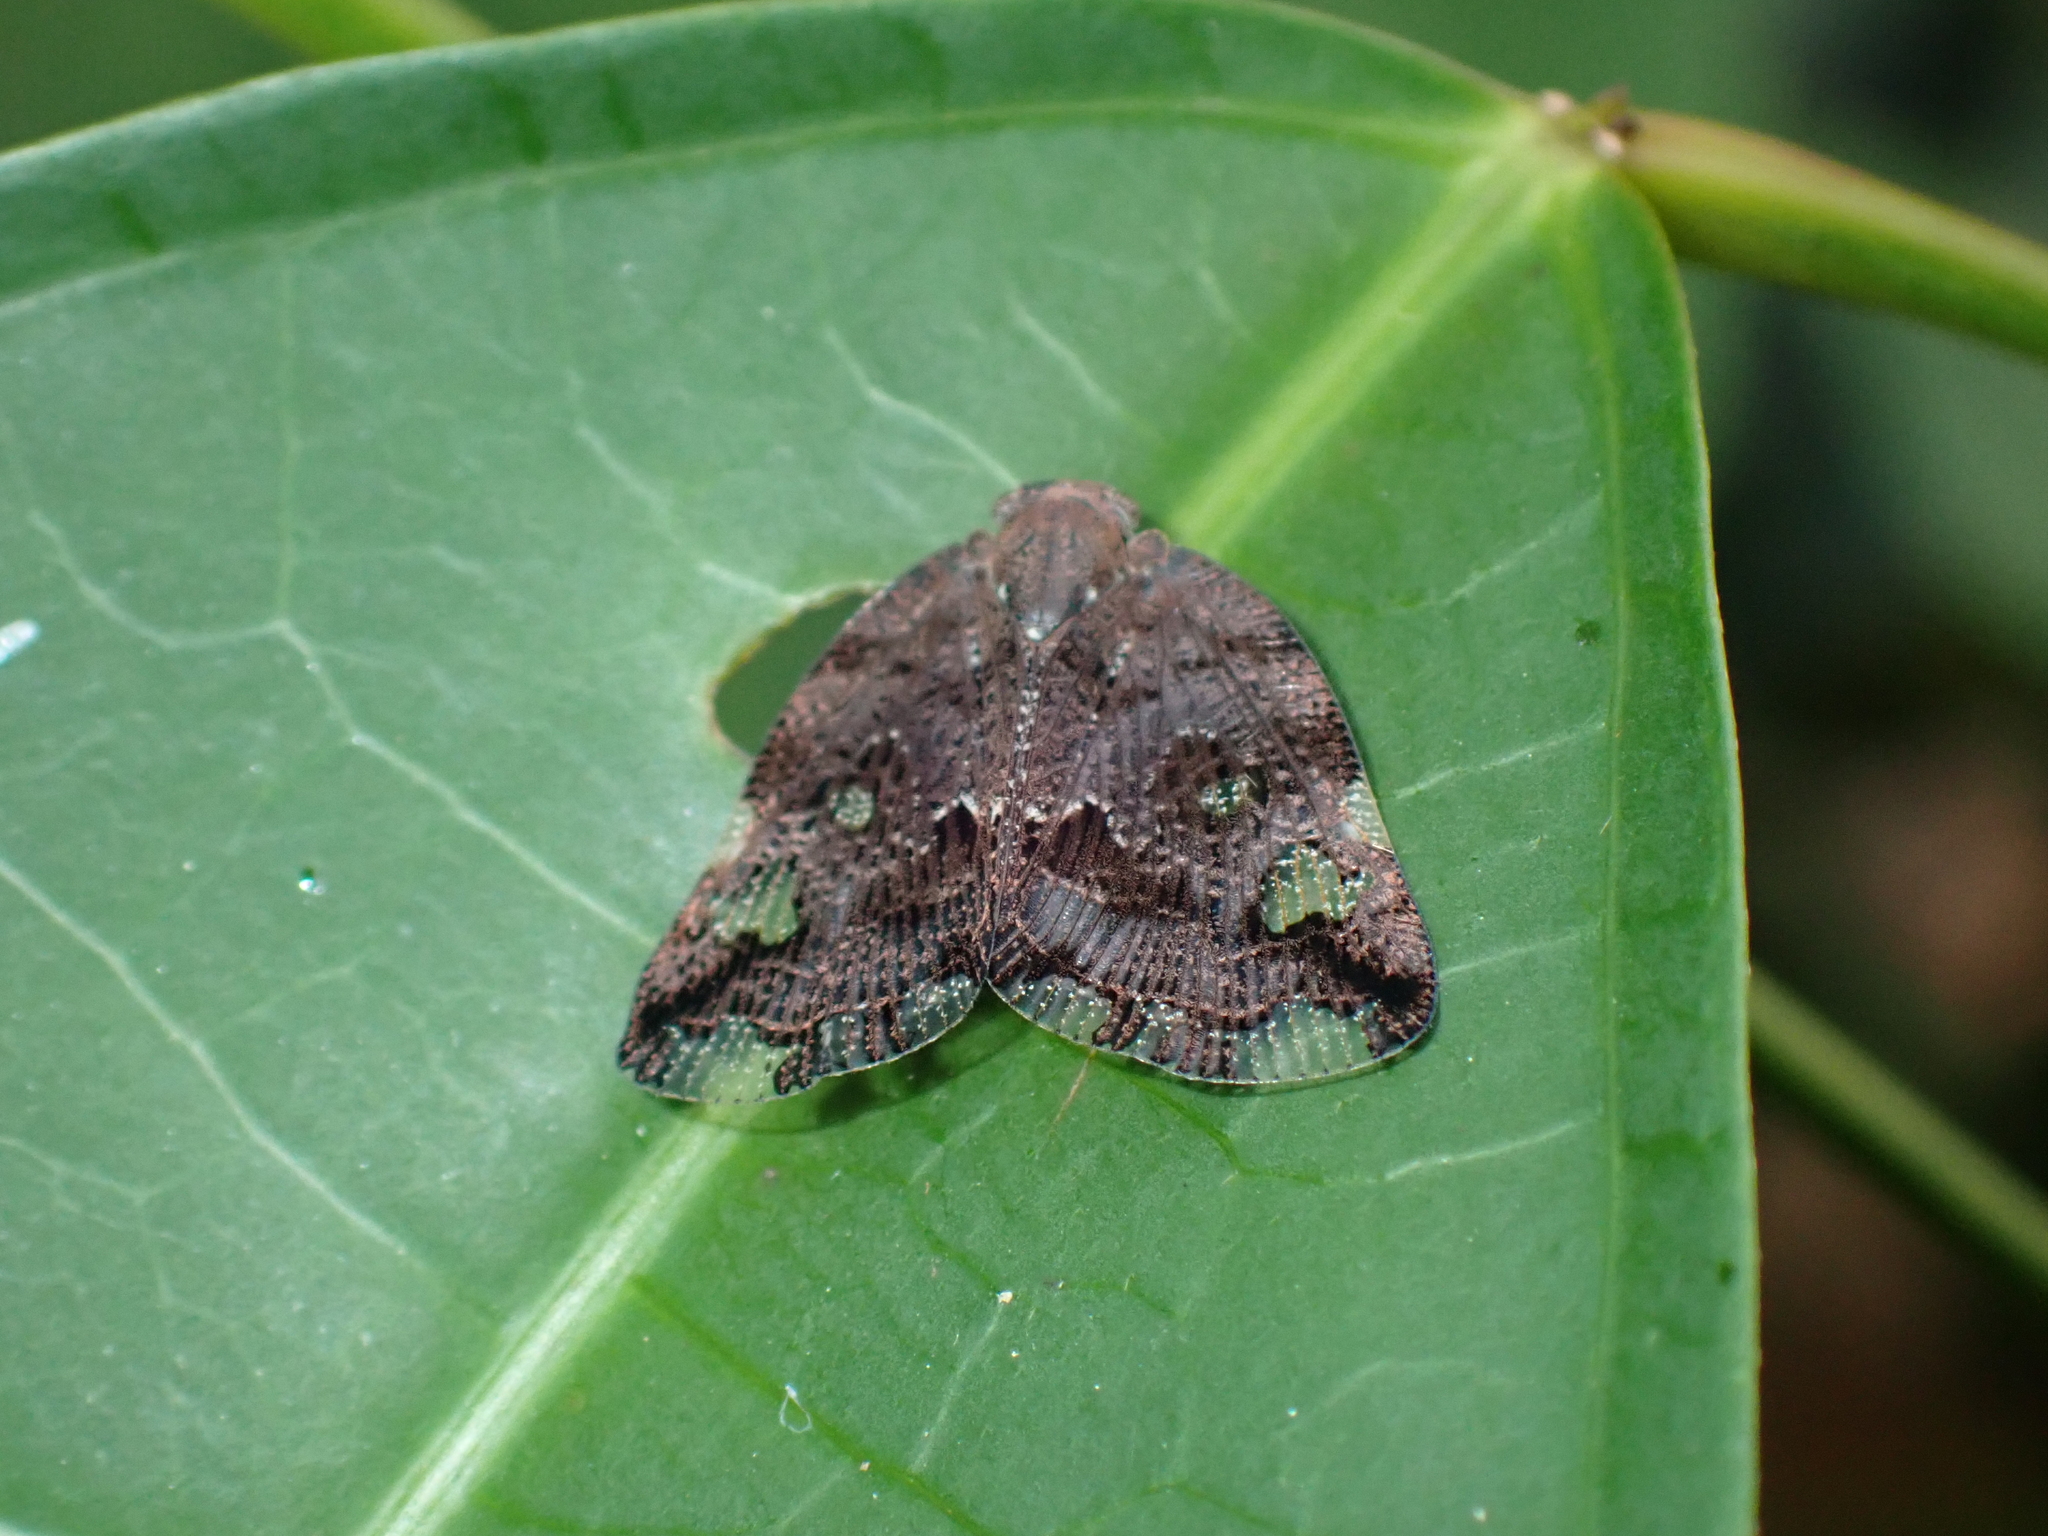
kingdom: Animalia
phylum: Arthropoda
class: Insecta
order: Hemiptera
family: Ricaniidae
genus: Ricania
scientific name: Ricania speculum
